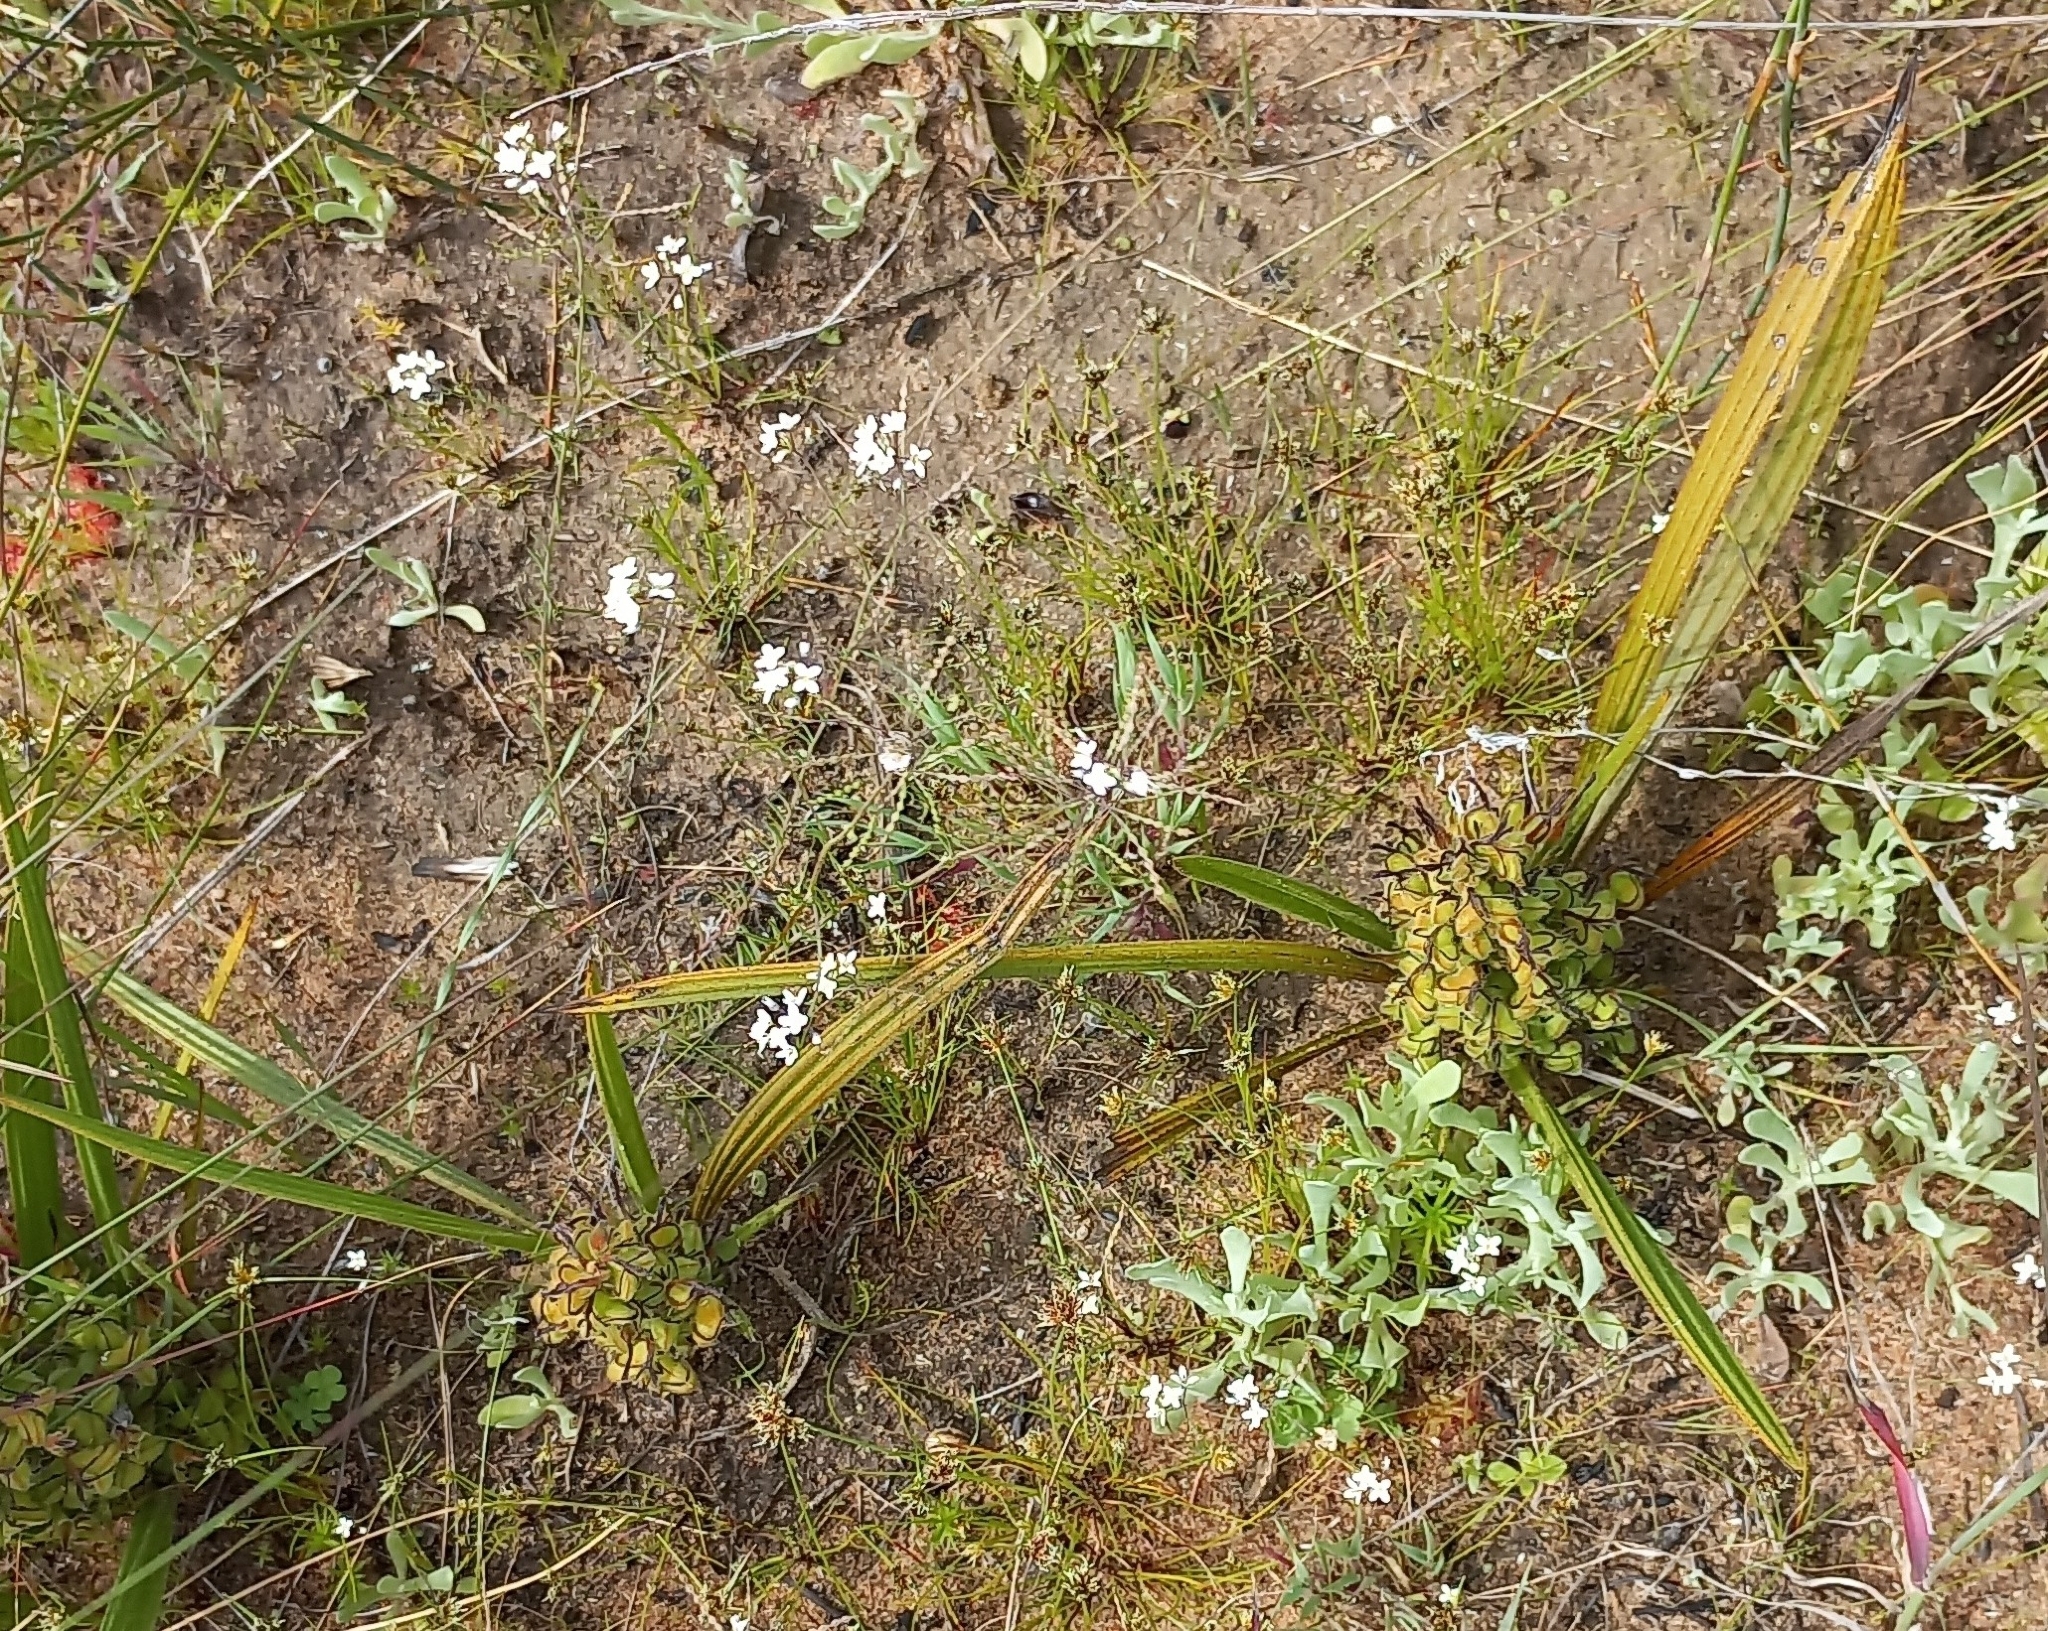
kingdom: Plantae
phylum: Tracheophyta
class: Liliopsida
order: Commelinales
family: Haemodoraceae
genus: Wachendorfia
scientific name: Wachendorfia paniculata
